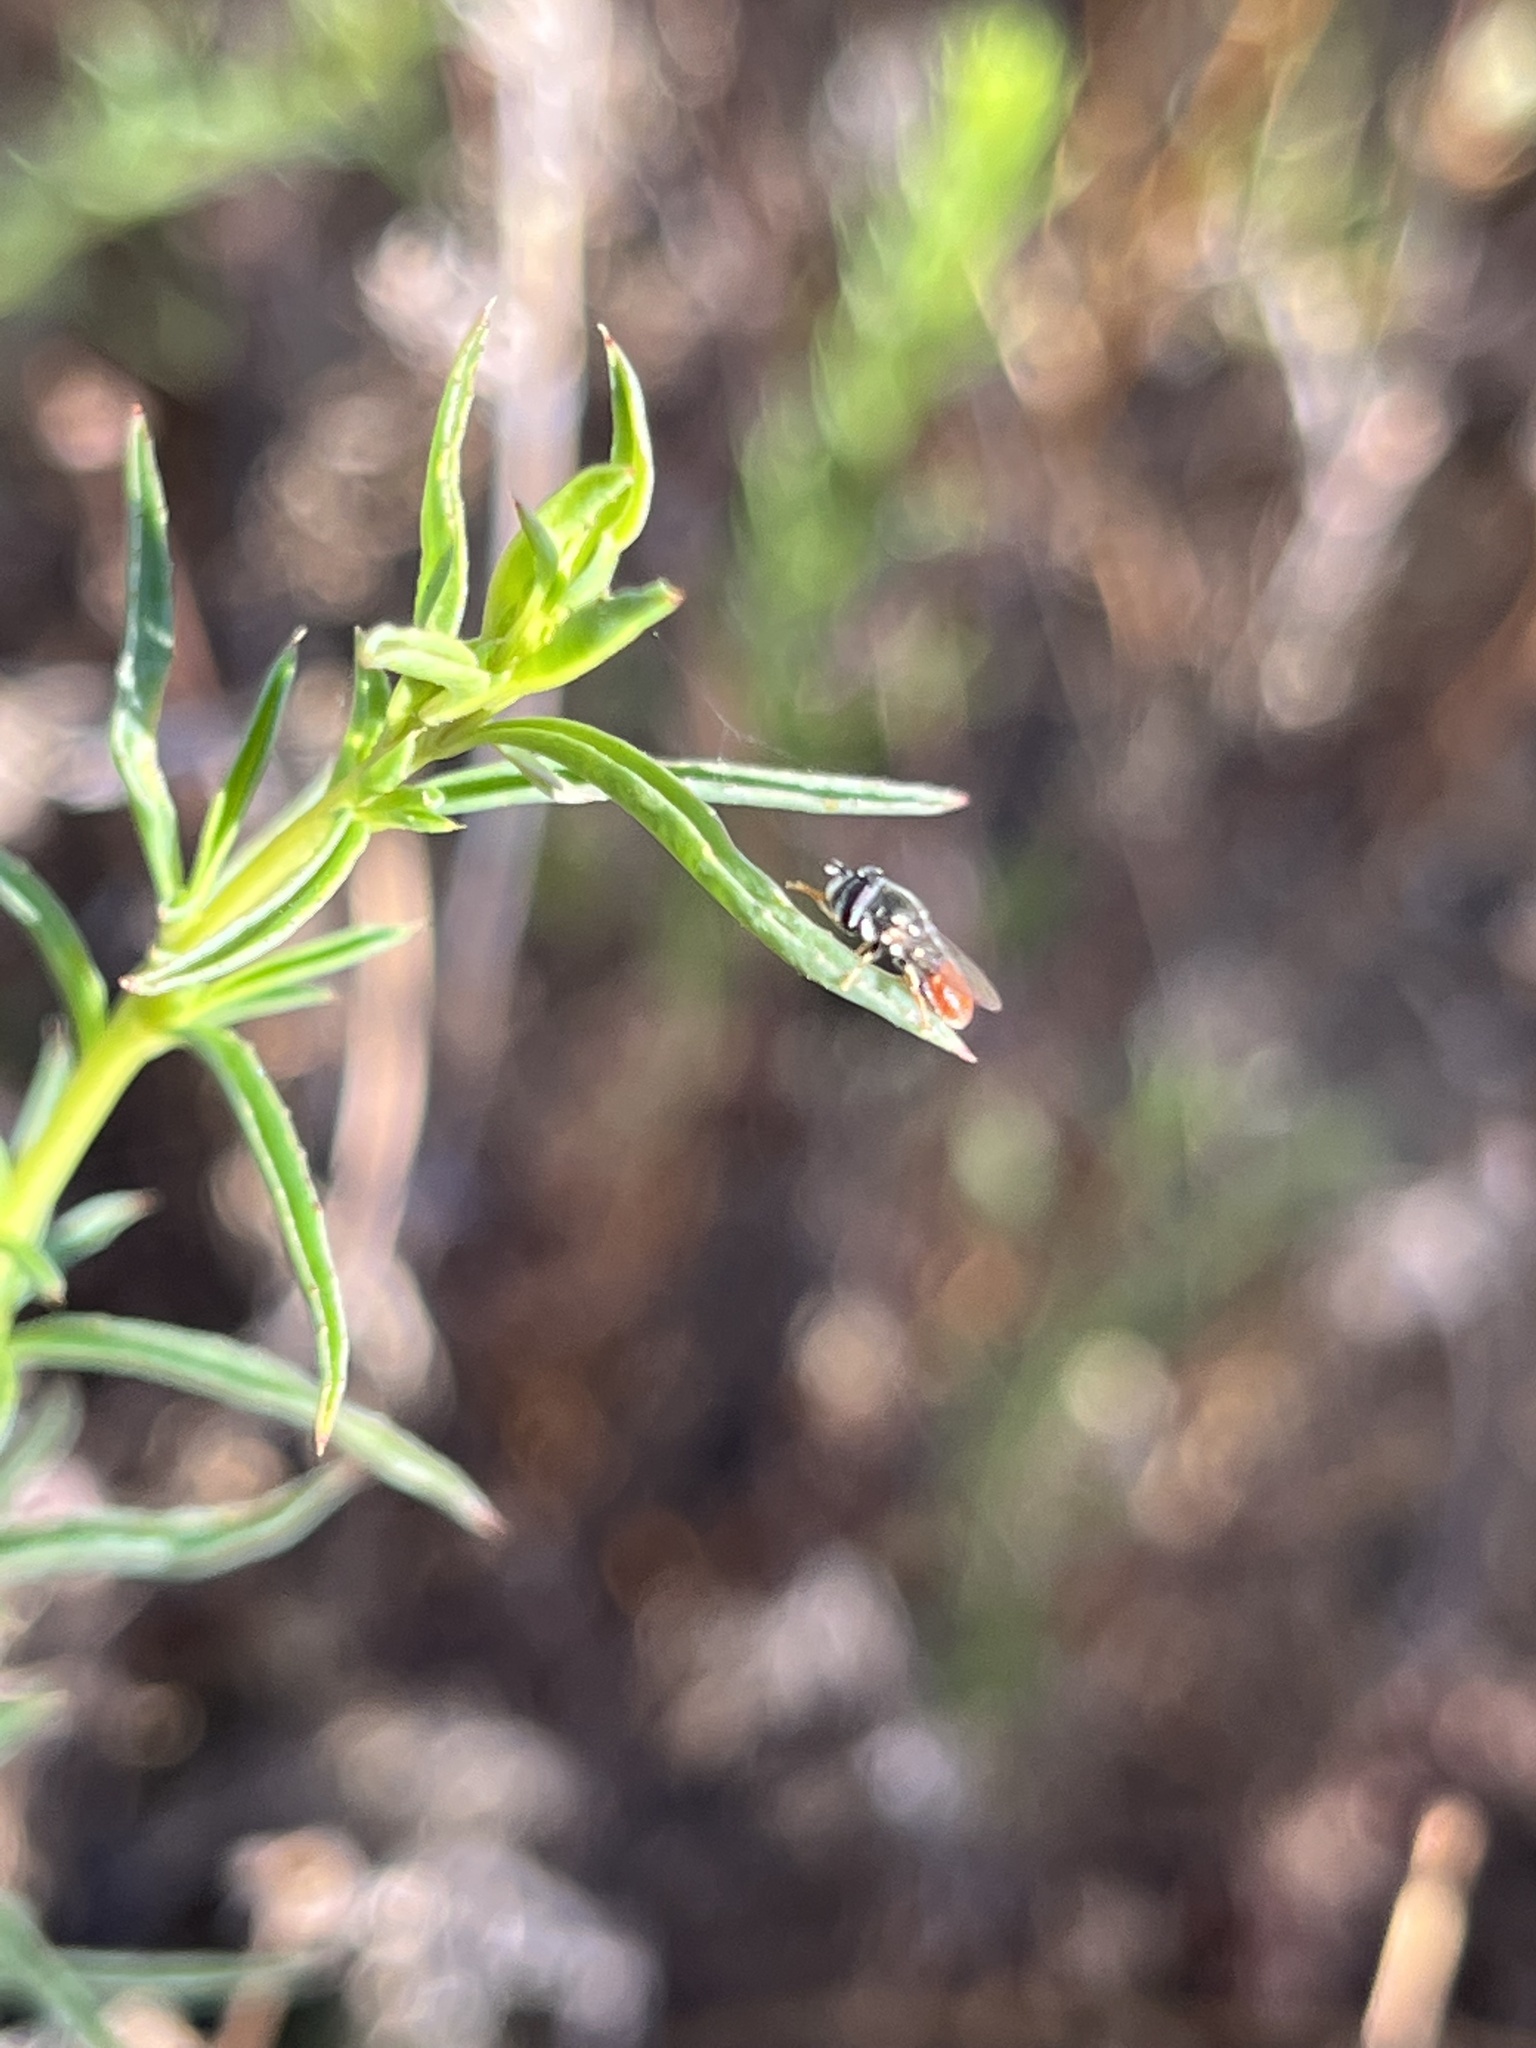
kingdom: Animalia
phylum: Arthropoda
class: Insecta
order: Diptera
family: Syrphidae
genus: Paragus
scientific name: Paragus haemorrhous
